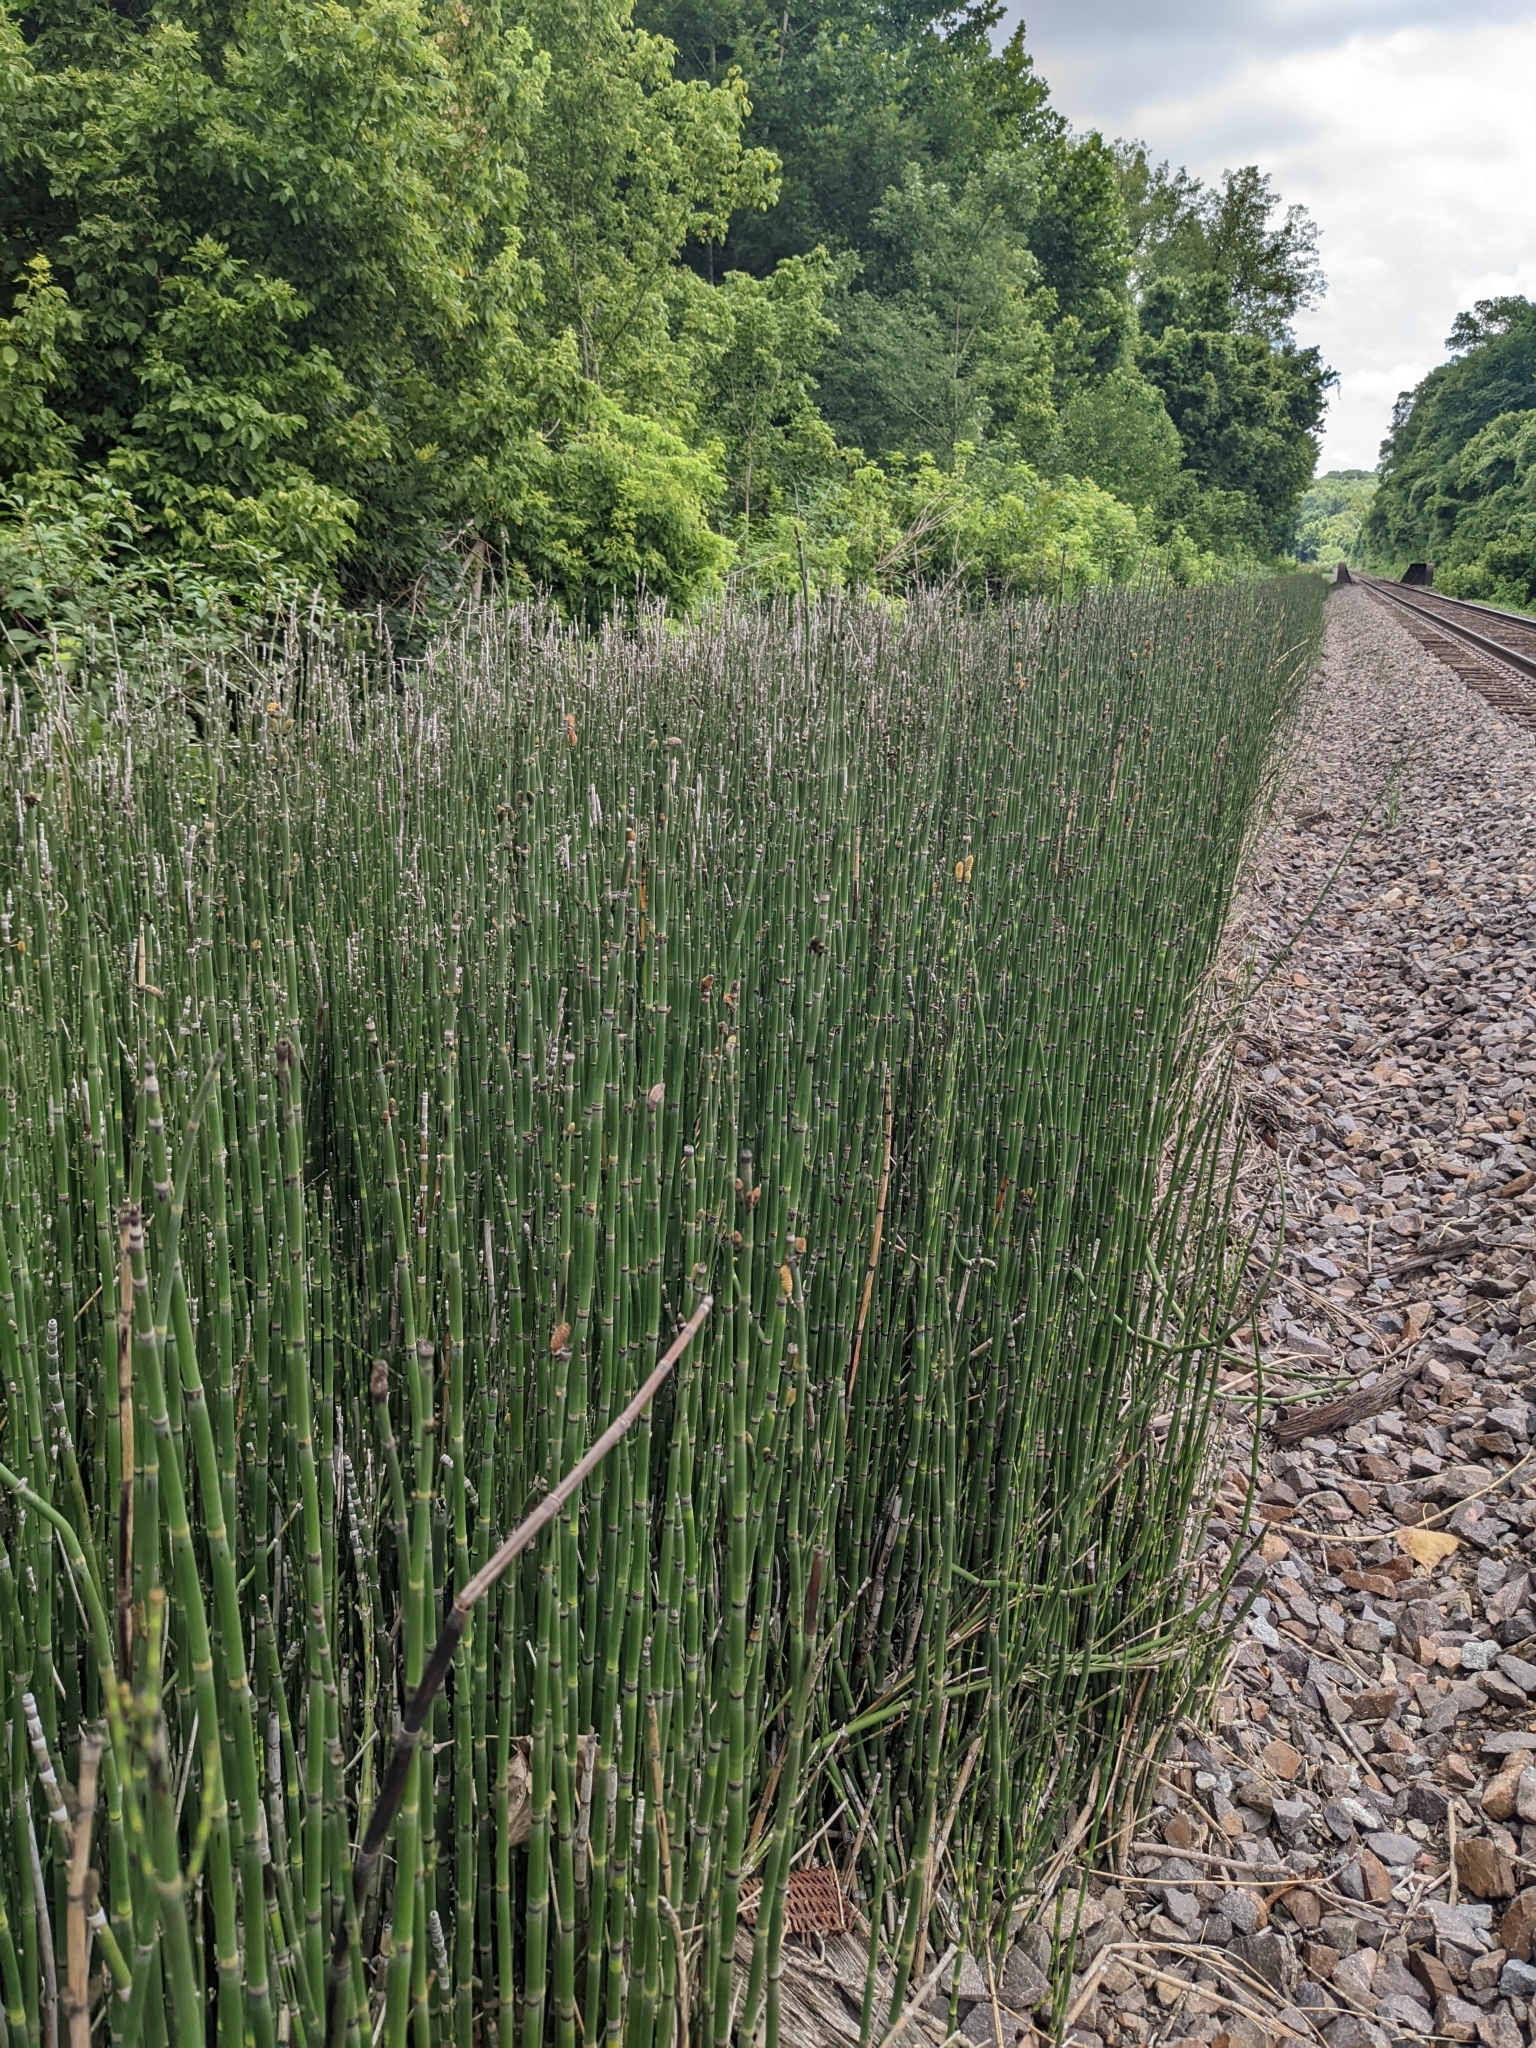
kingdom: Plantae
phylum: Tracheophyta
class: Polypodiopsida
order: Equisetales
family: Equisetaceae
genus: Equisetum
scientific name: Equisetum praealtum
